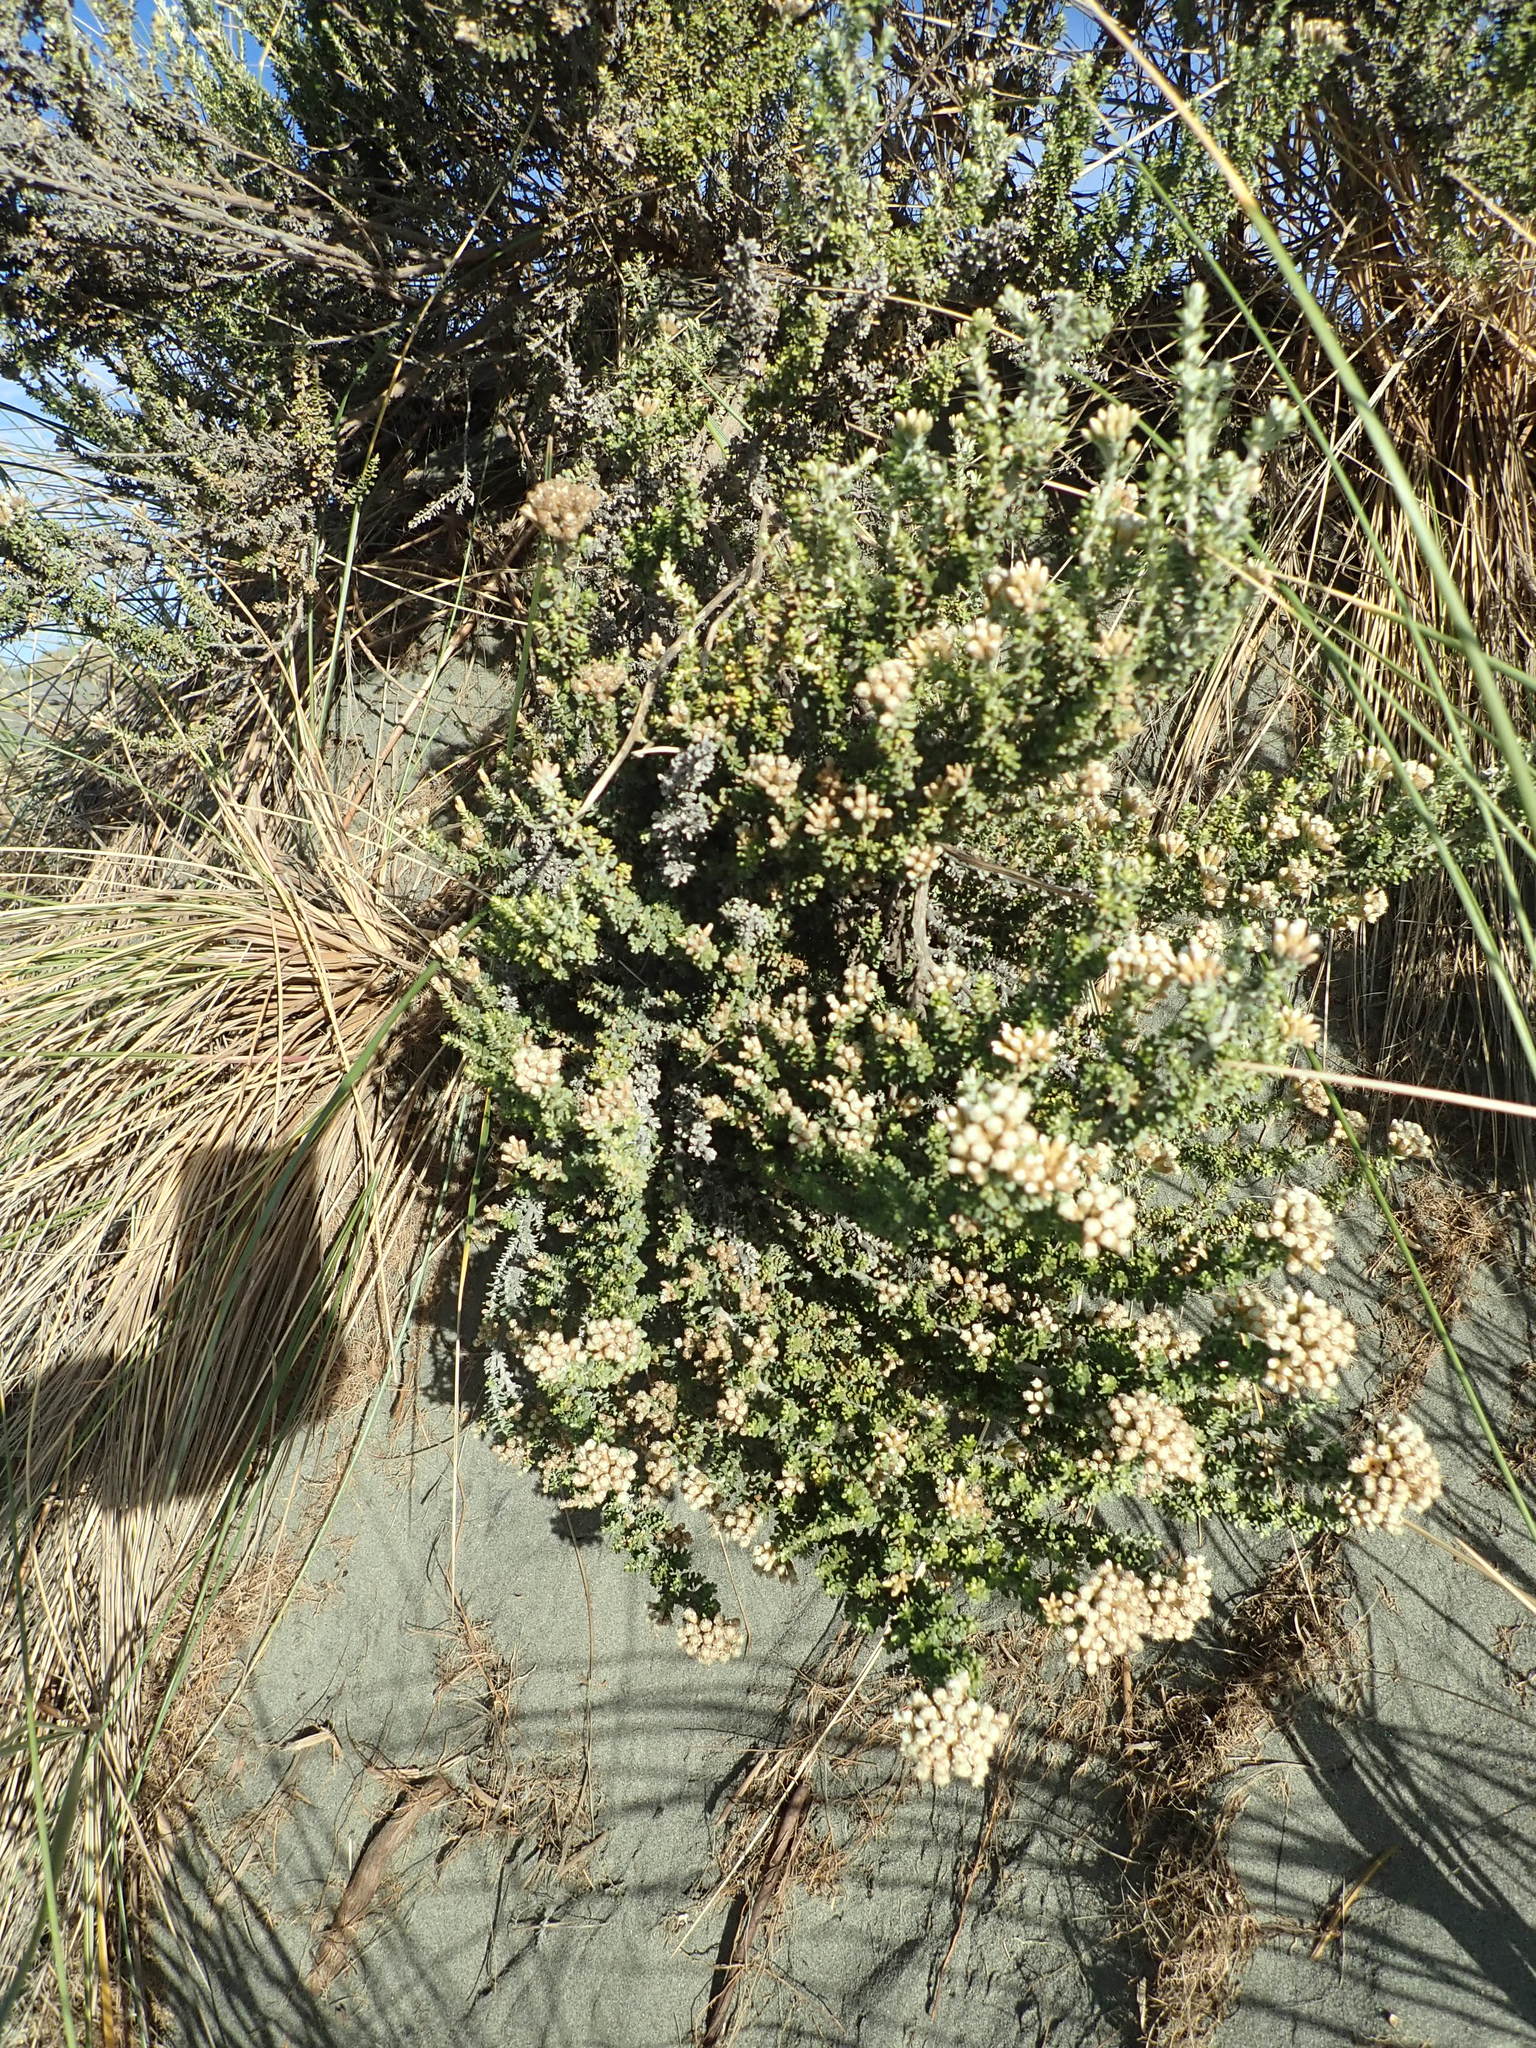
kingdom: Plantae
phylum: Tracheophyta
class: Magnoliopsida
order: Asterales
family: Asteraceae
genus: Ozothamnus
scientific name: Ozothamnus leptophyllus
